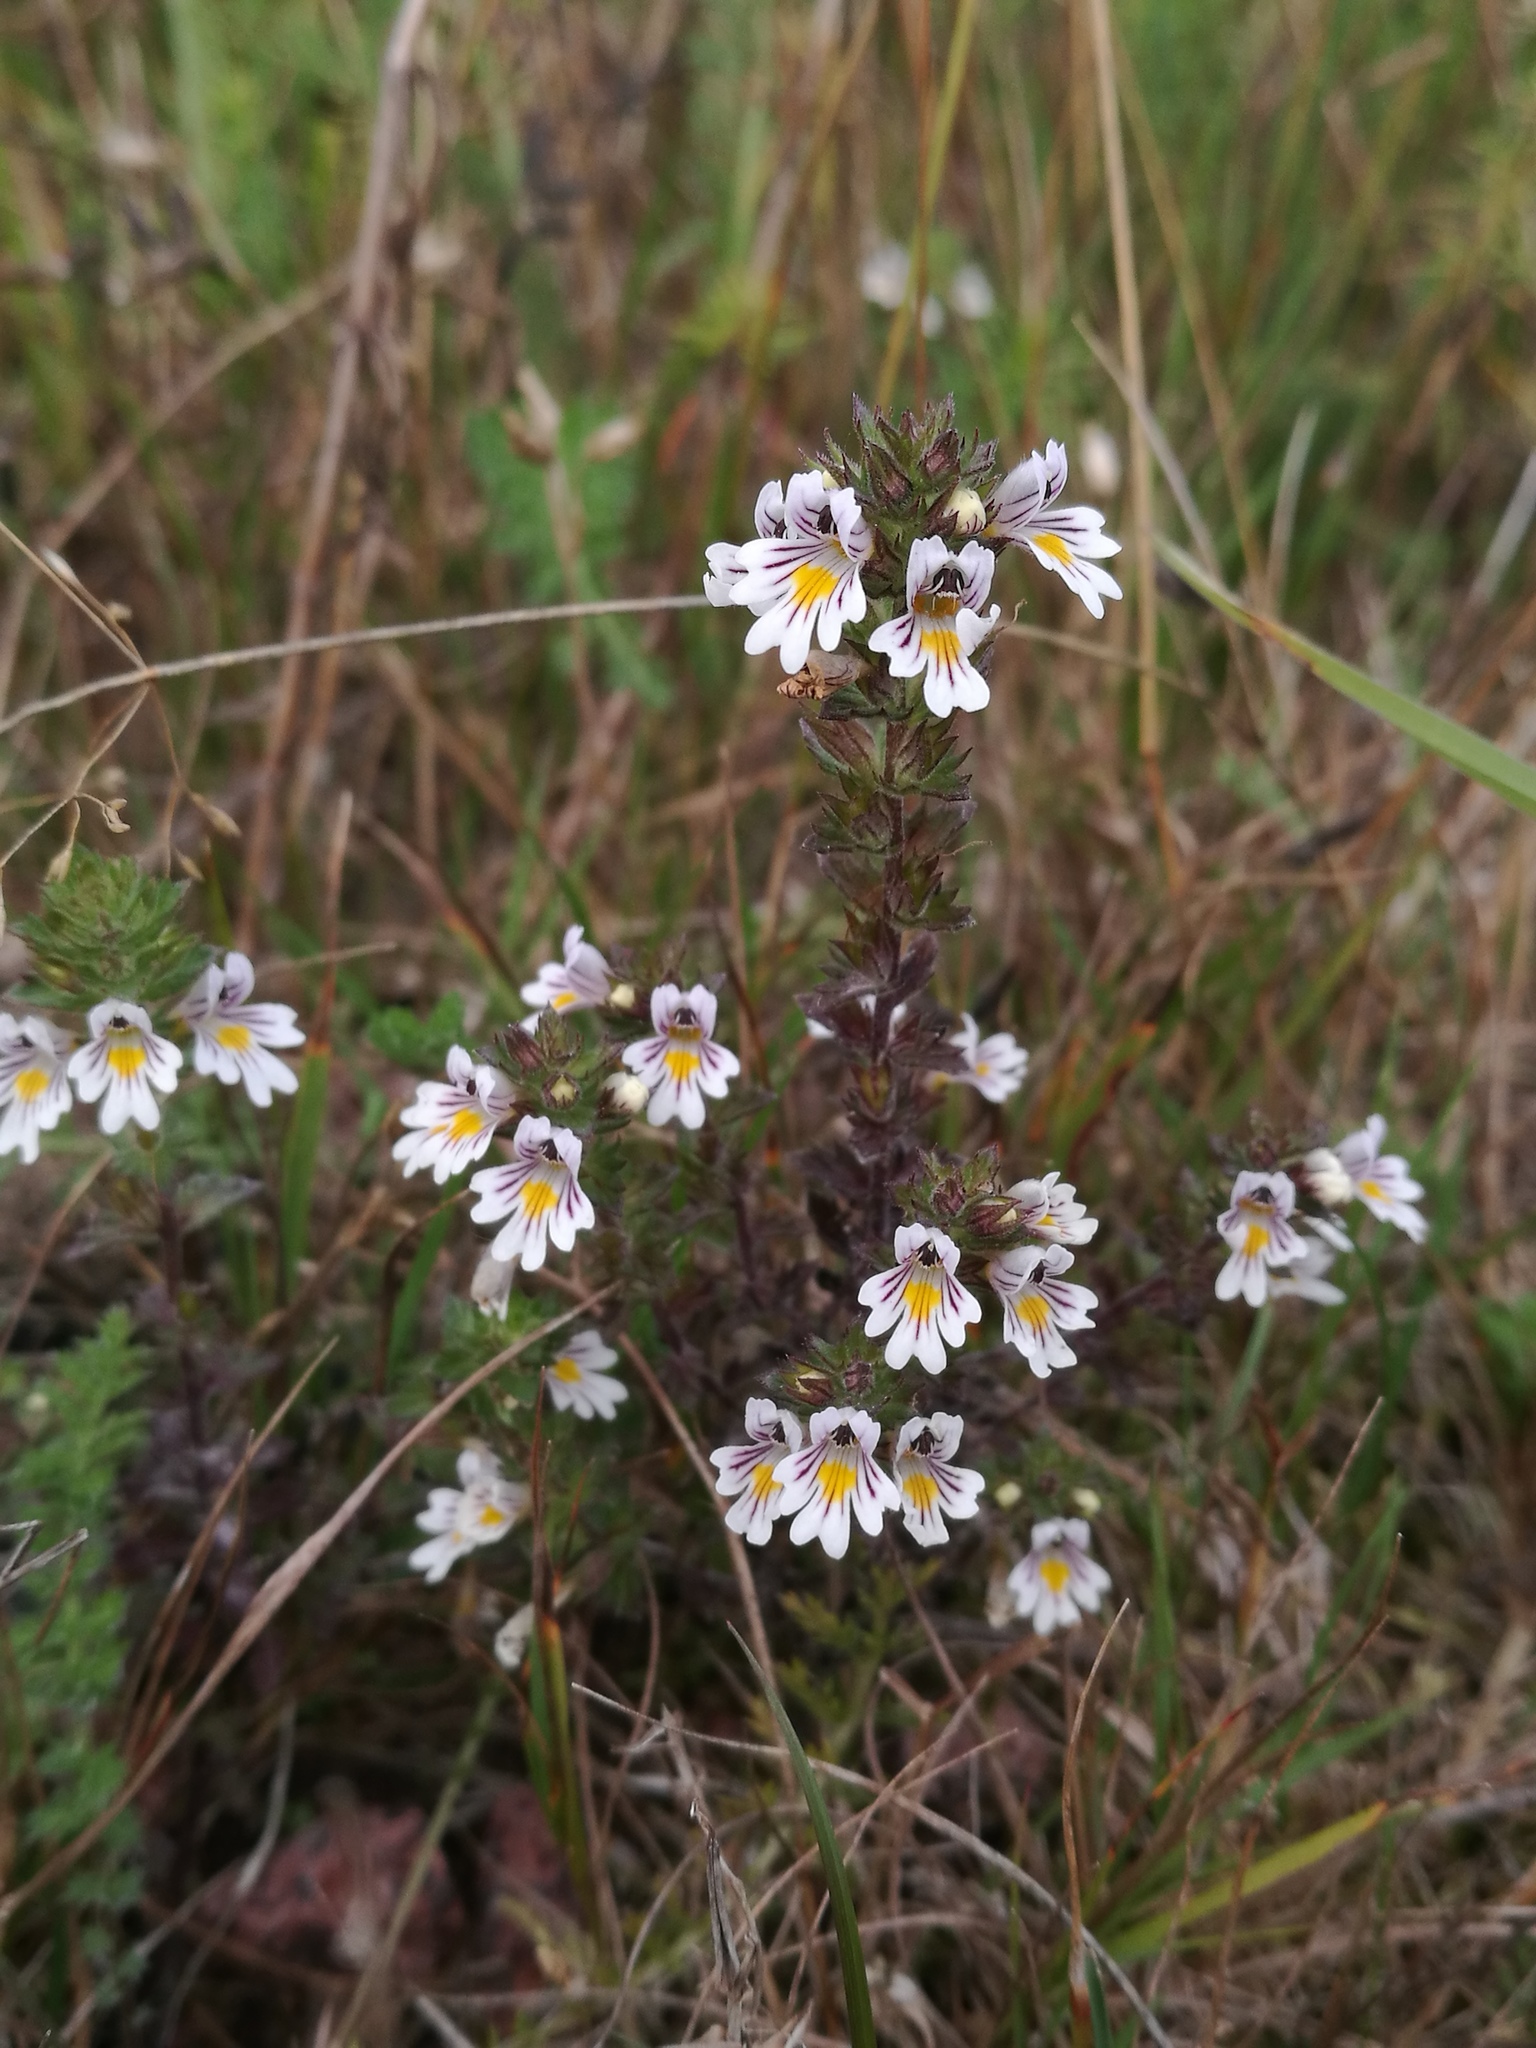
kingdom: Plantae
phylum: Tracheophyta
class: Magnoliopsida
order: Lamiales
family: Orobanchaceae
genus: Euphrasia
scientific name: Euphrasia stricta
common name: Drug eyebright
